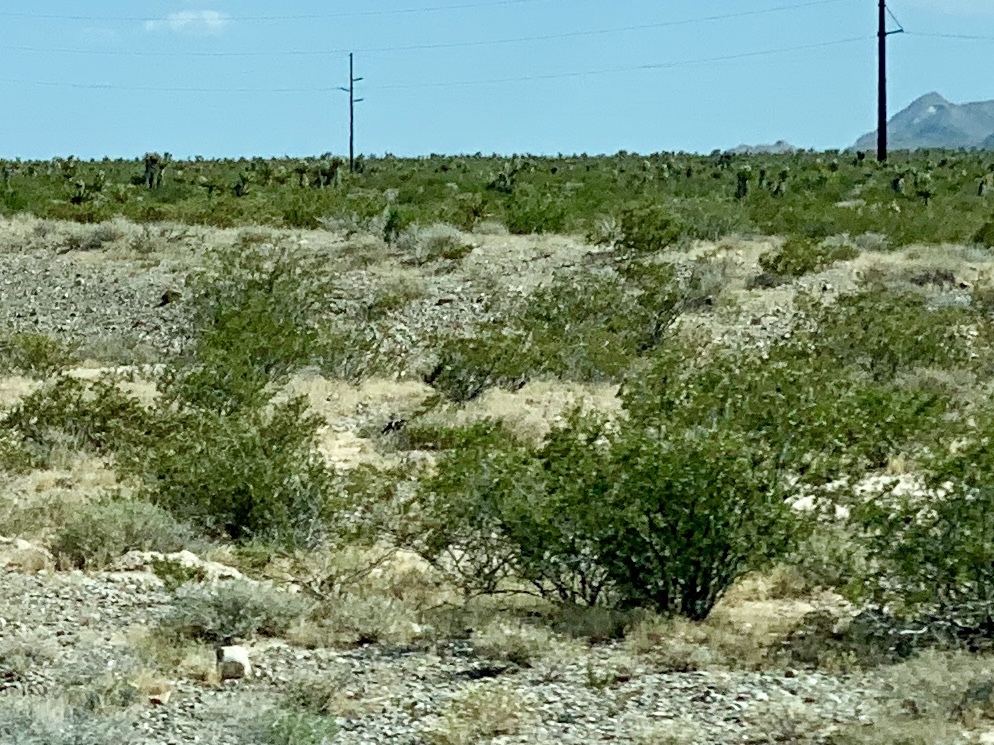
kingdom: Plantae
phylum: Tracheophyta
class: Magnoliopsida
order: Zygophyllales
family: Zygophyllaceae
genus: Larrea
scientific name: Larrea tridentata
